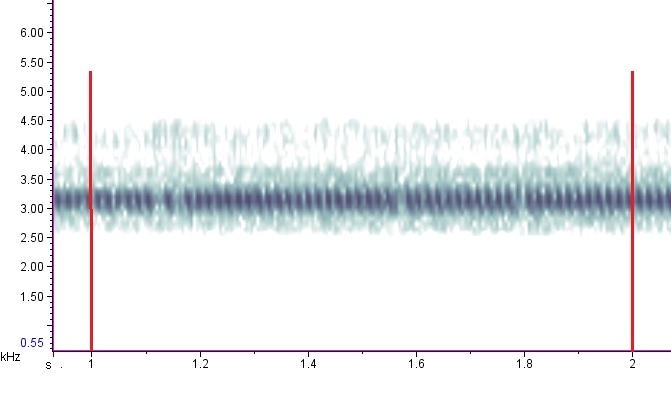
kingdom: Animalia
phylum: Arthropoda
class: Insecta
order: Orthoptera
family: Gryllidae
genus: Oecanthus
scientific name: Oecanthus latipennis
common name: Broad-winged tree cricket
